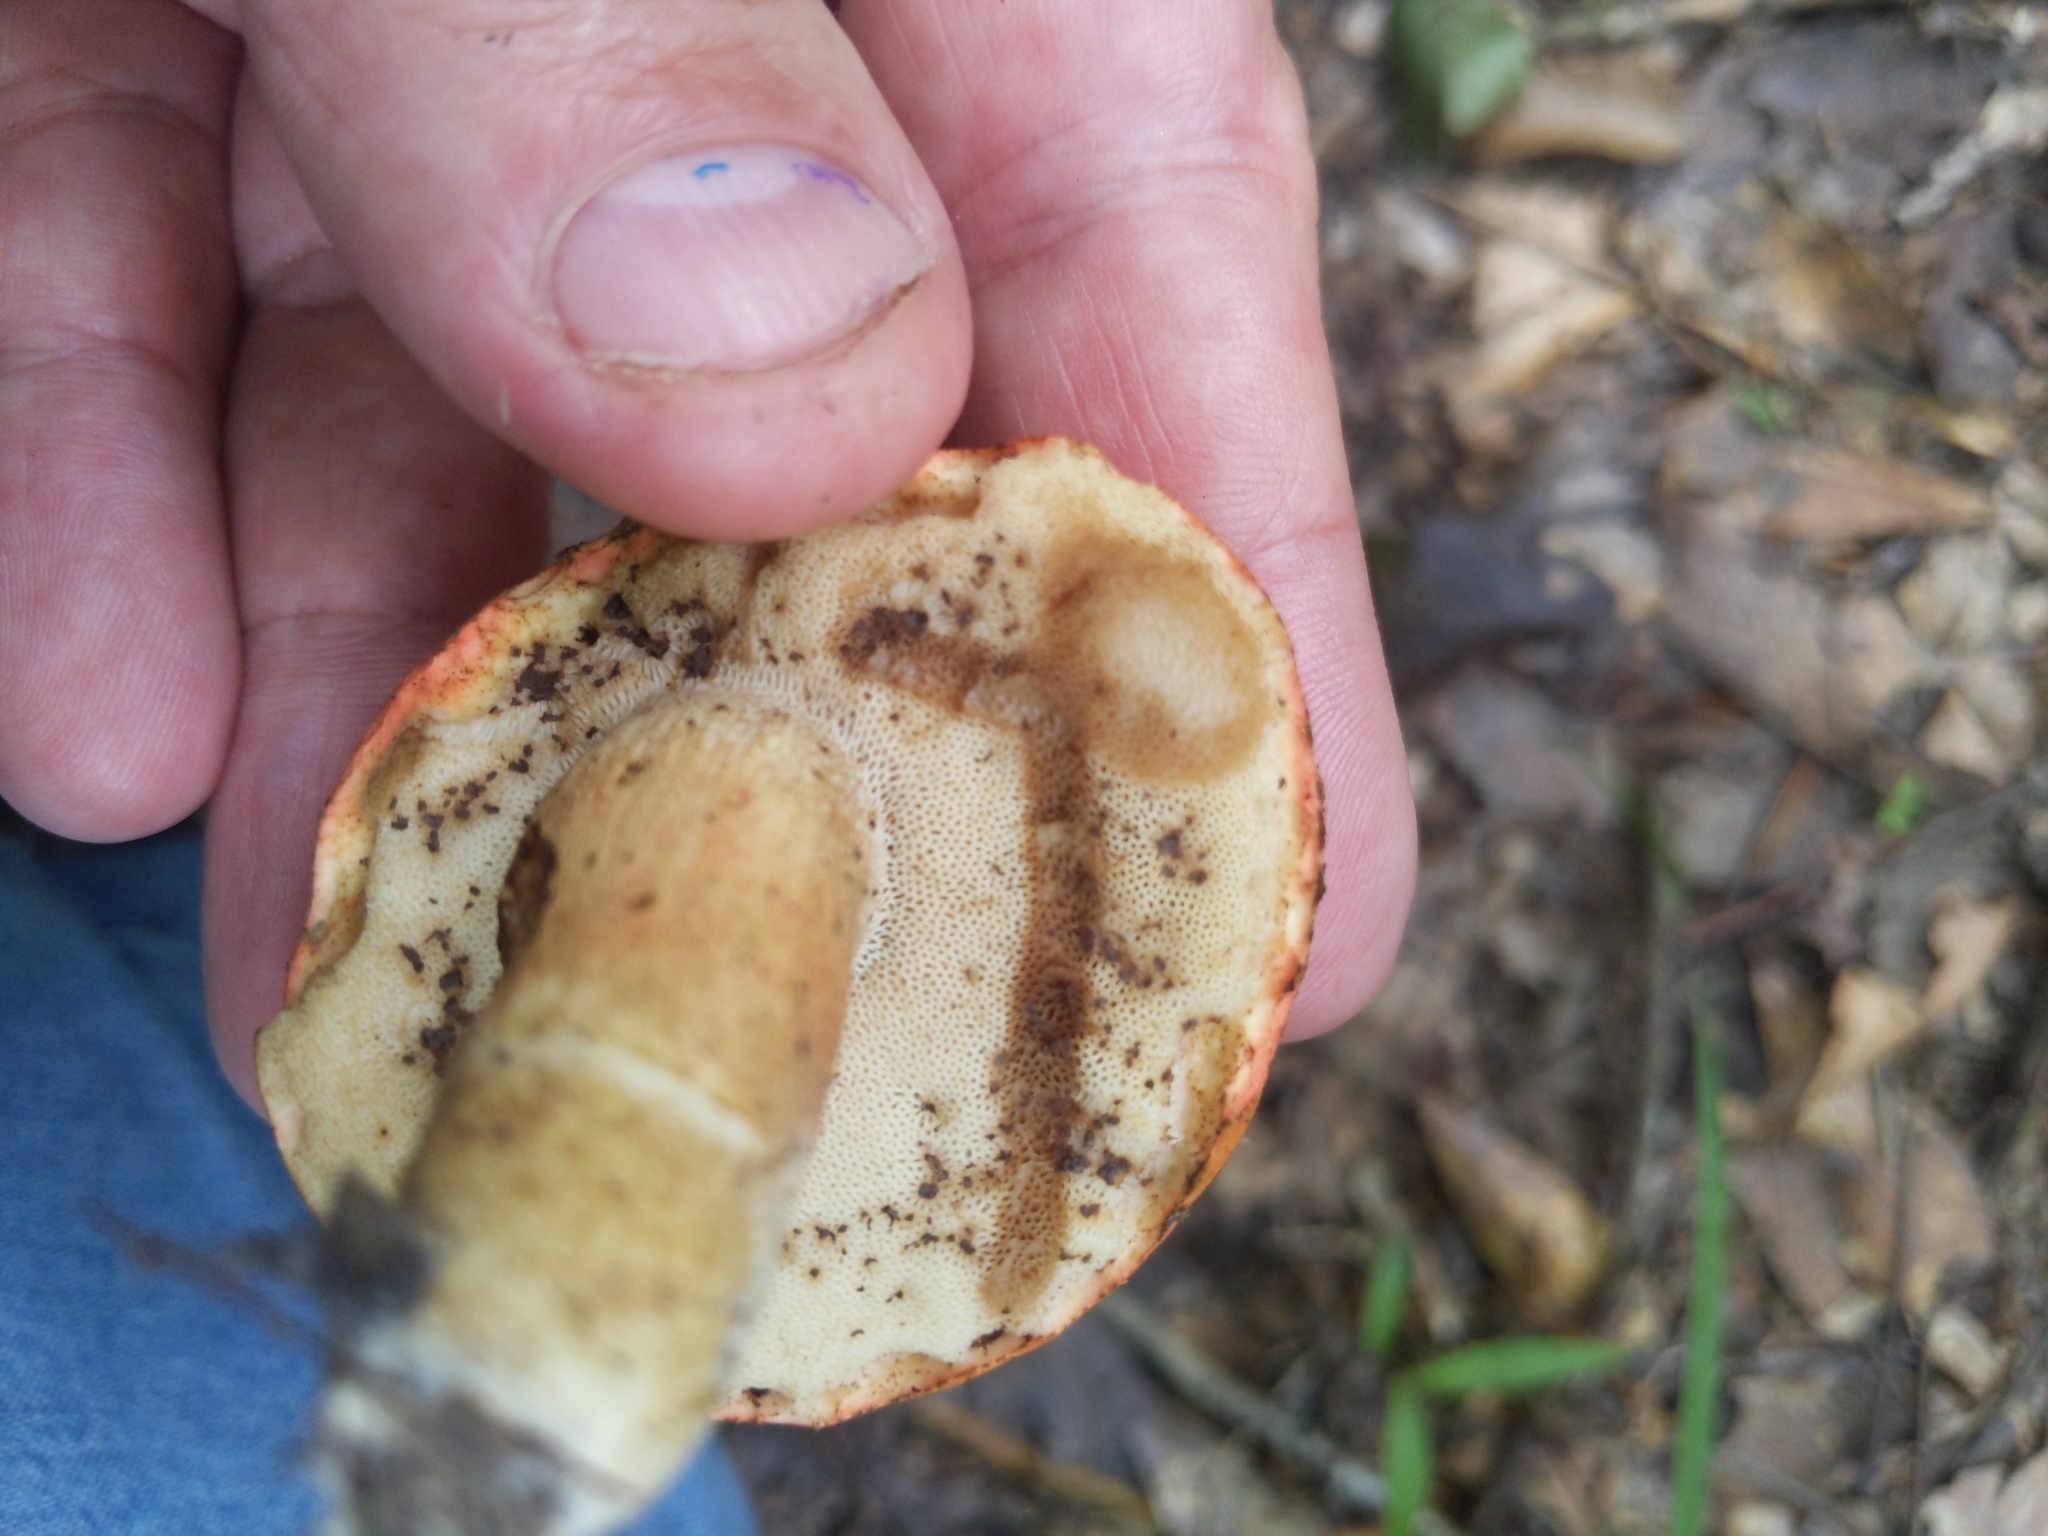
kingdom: Fungi
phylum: Basidiomycota
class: Agaricomycetes
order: Boletales
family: Boletaceae
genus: Tylopilus
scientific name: Tylopilus balloui
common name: Burnt-orange bolete
